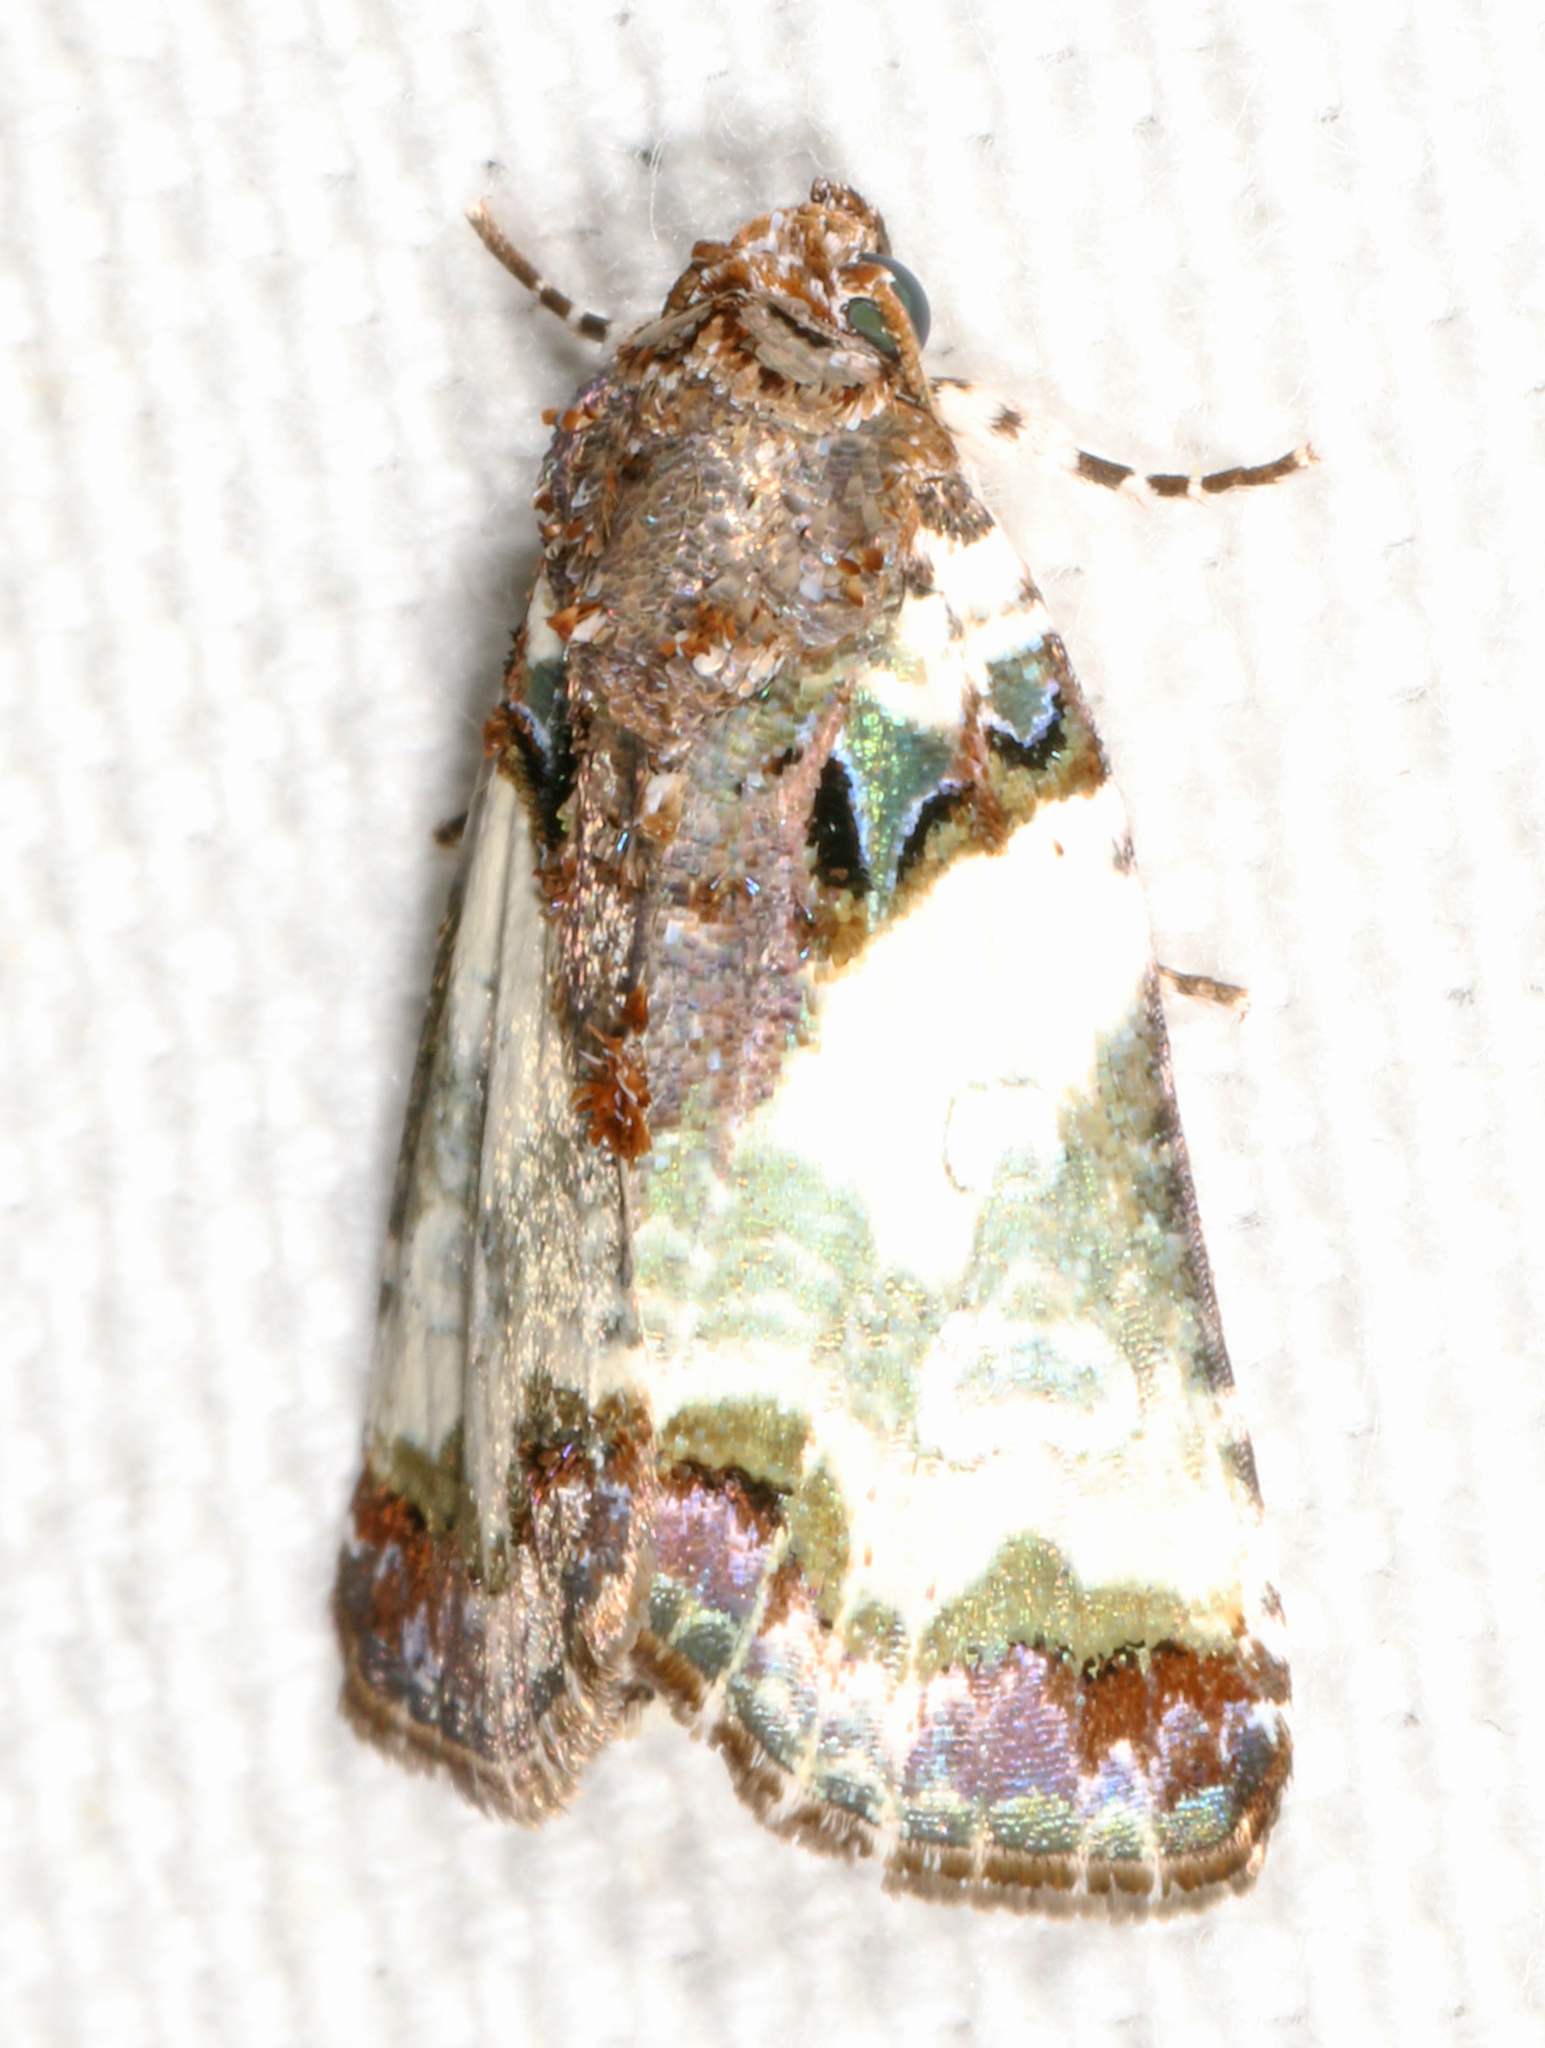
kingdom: Animalia
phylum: Arthropoda
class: Insecta
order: Lepidoptera
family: Noctuidae
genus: Cerma
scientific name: Cerma cerintha
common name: Tufted bird-dropping moth
